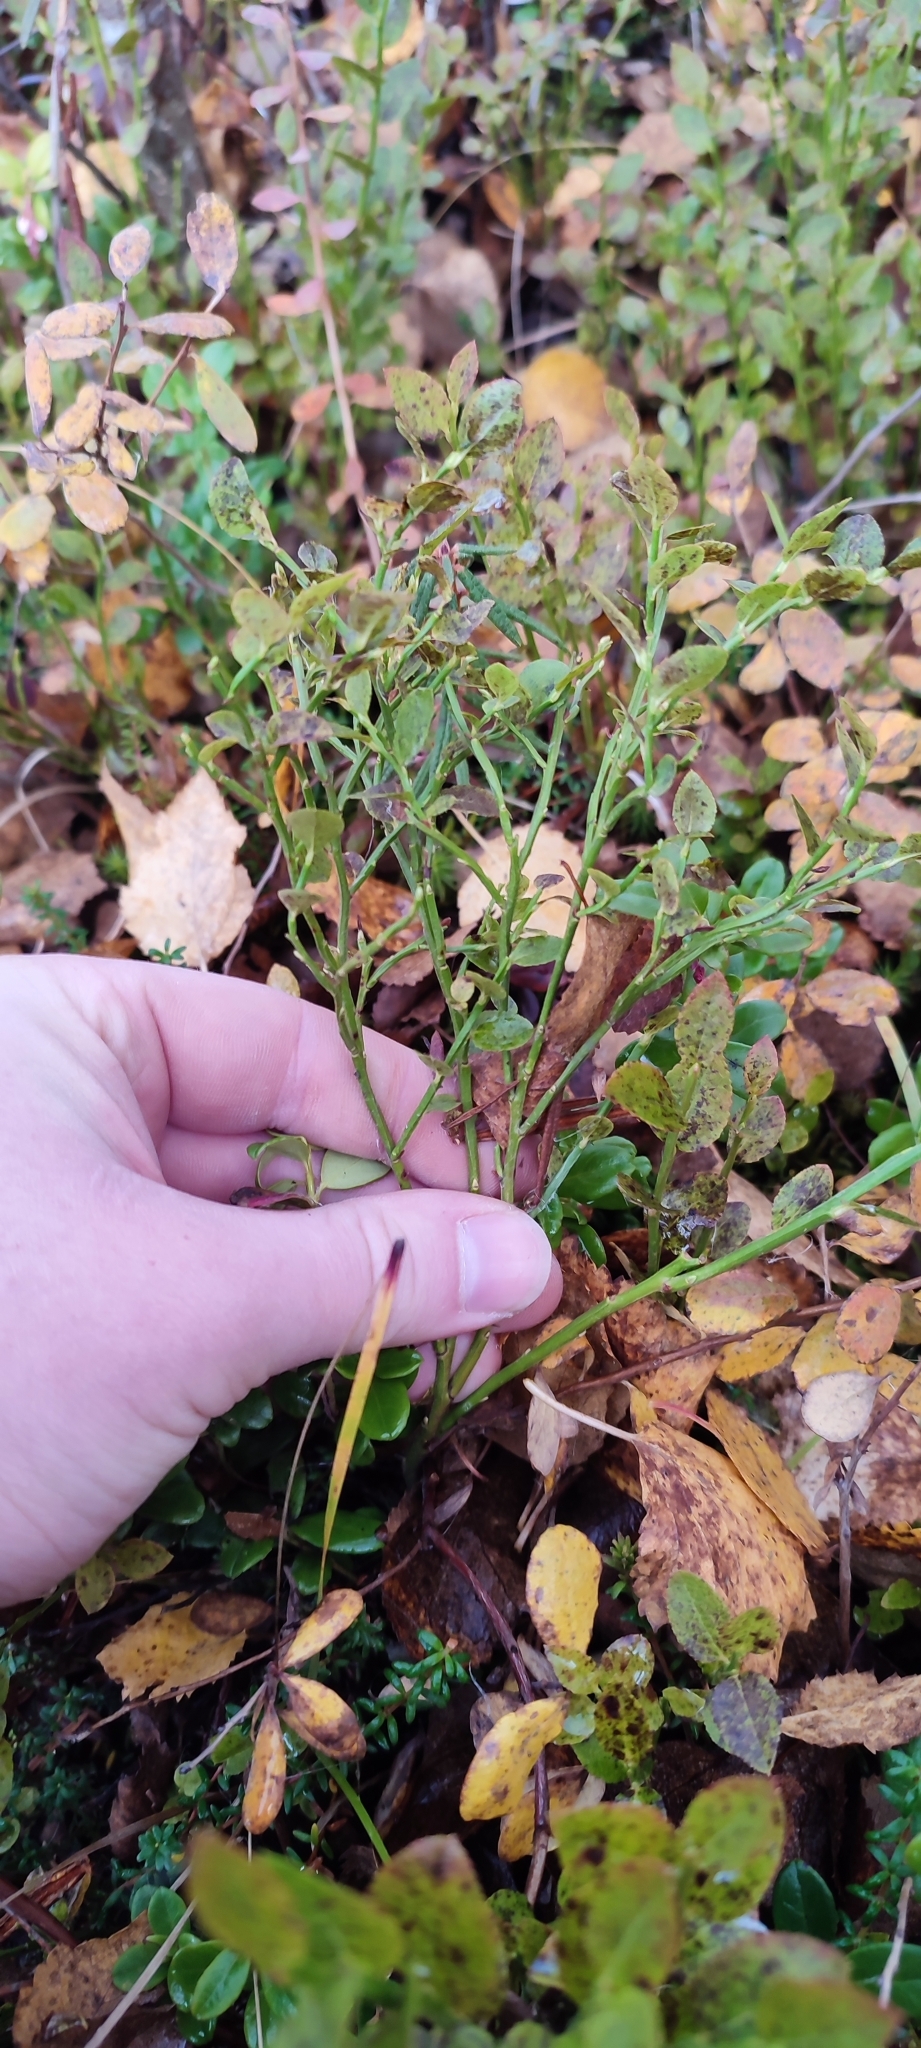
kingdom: Plantae
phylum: Tracheophyta
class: Magnoliopsida
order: Ericales
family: Ericaceae
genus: Vaccinium
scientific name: Vaccinium myrtillus
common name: Bilberry
